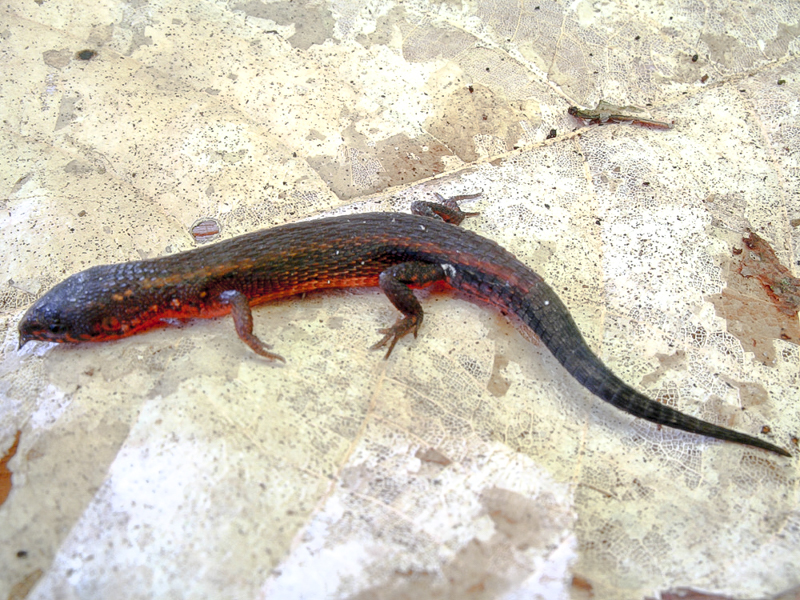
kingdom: Animalia
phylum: Chordata
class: Squamata
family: Gymnophthalmidae
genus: Loxopholis
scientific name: Loxopholis osvaldoi
